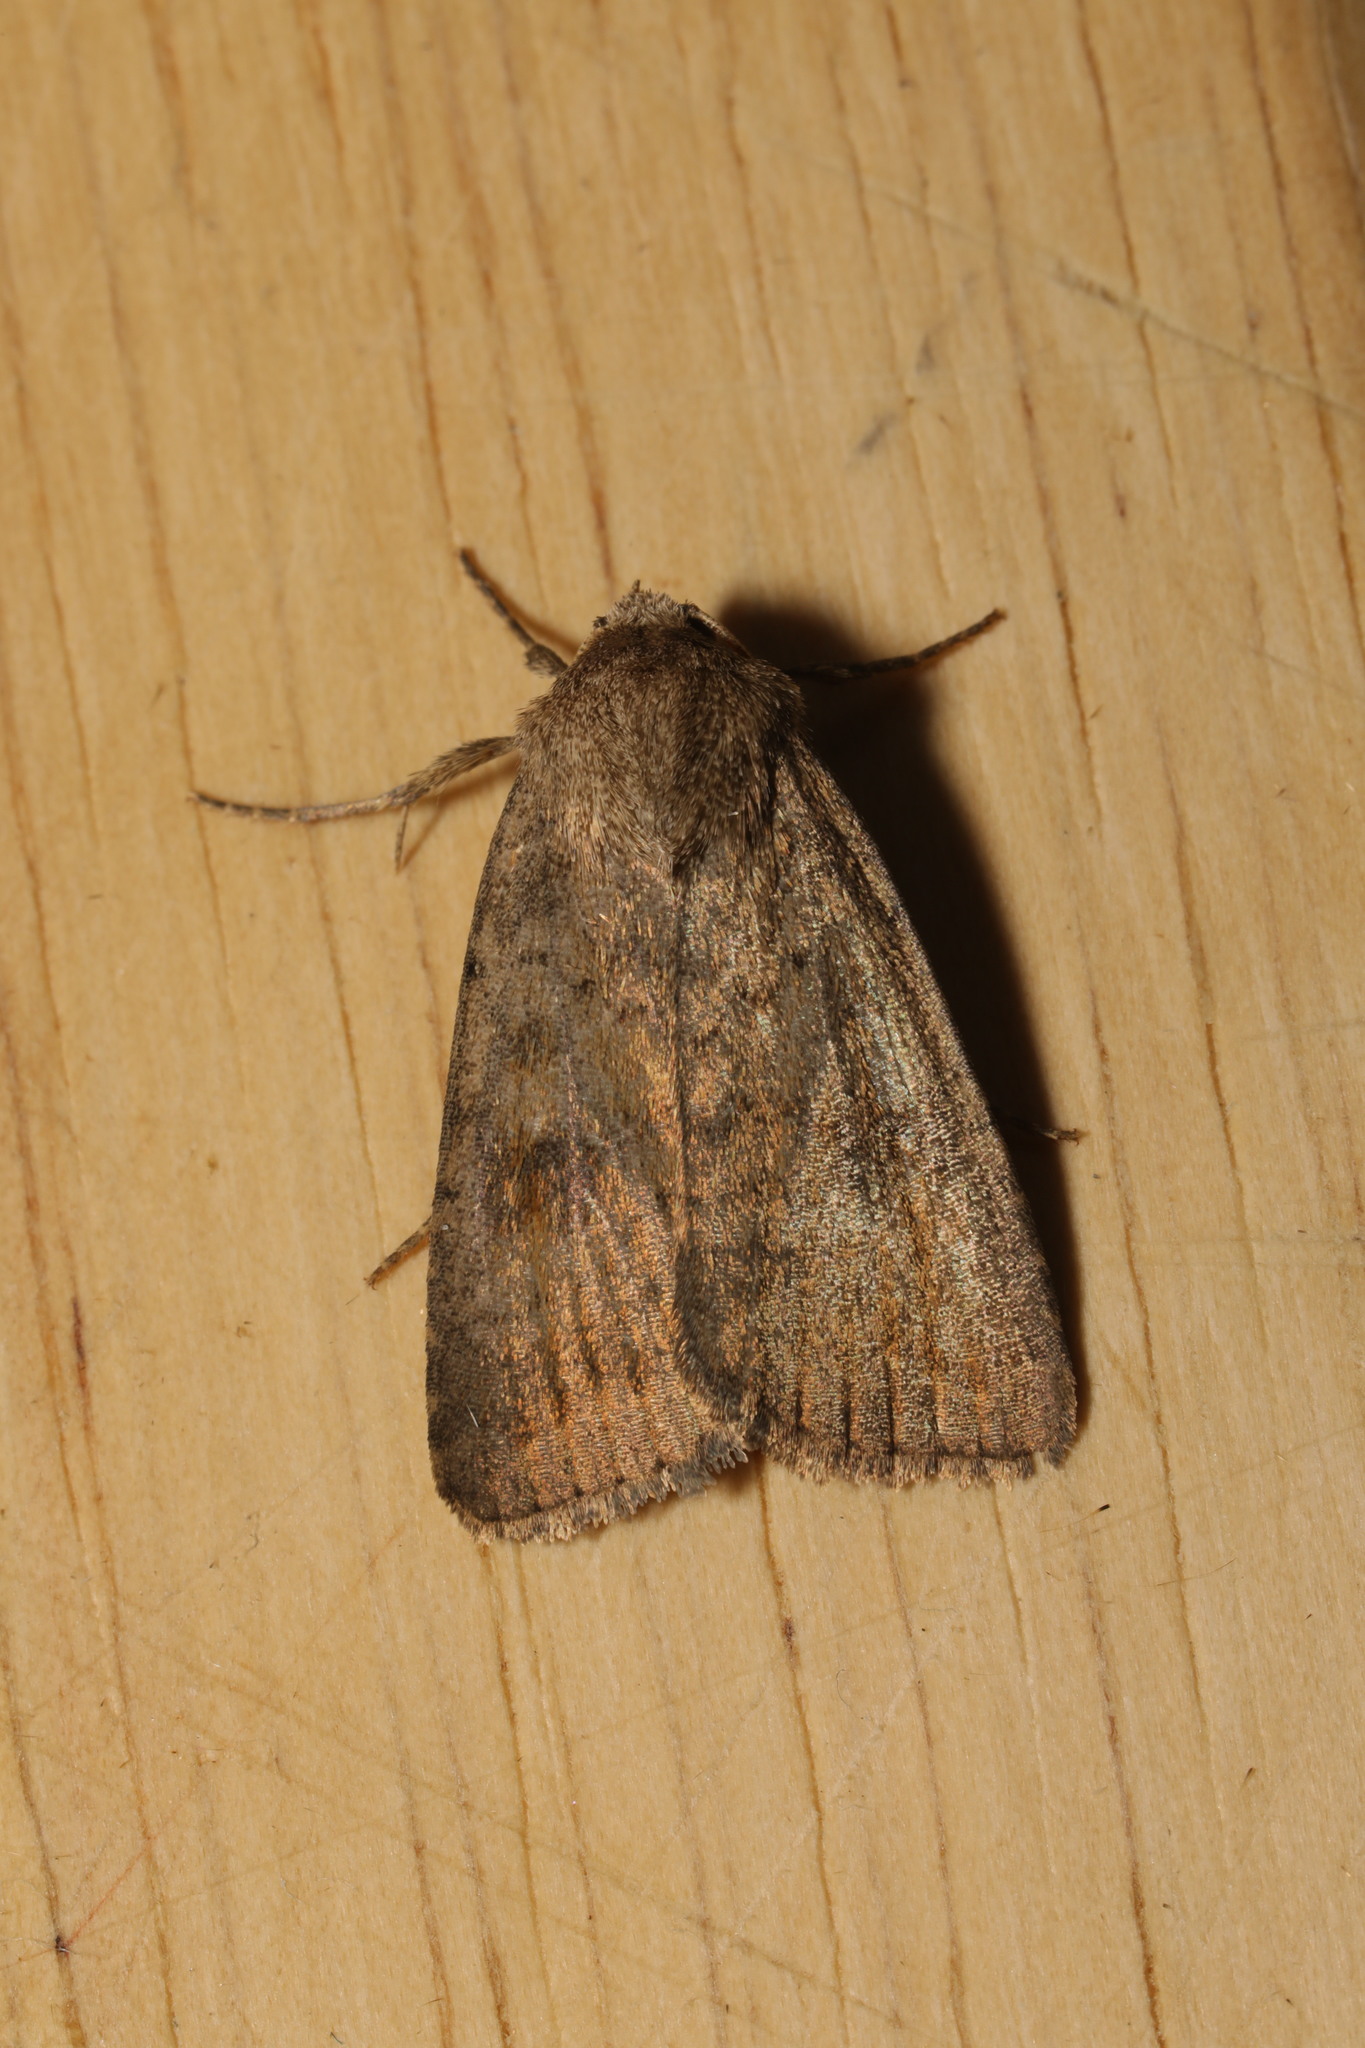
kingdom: Animalia
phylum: Arthropoda
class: Insecta
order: Lepidoptera
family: Noctuidae
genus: Caradrina
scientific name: Caradrina morpheus
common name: Mottled rustic
